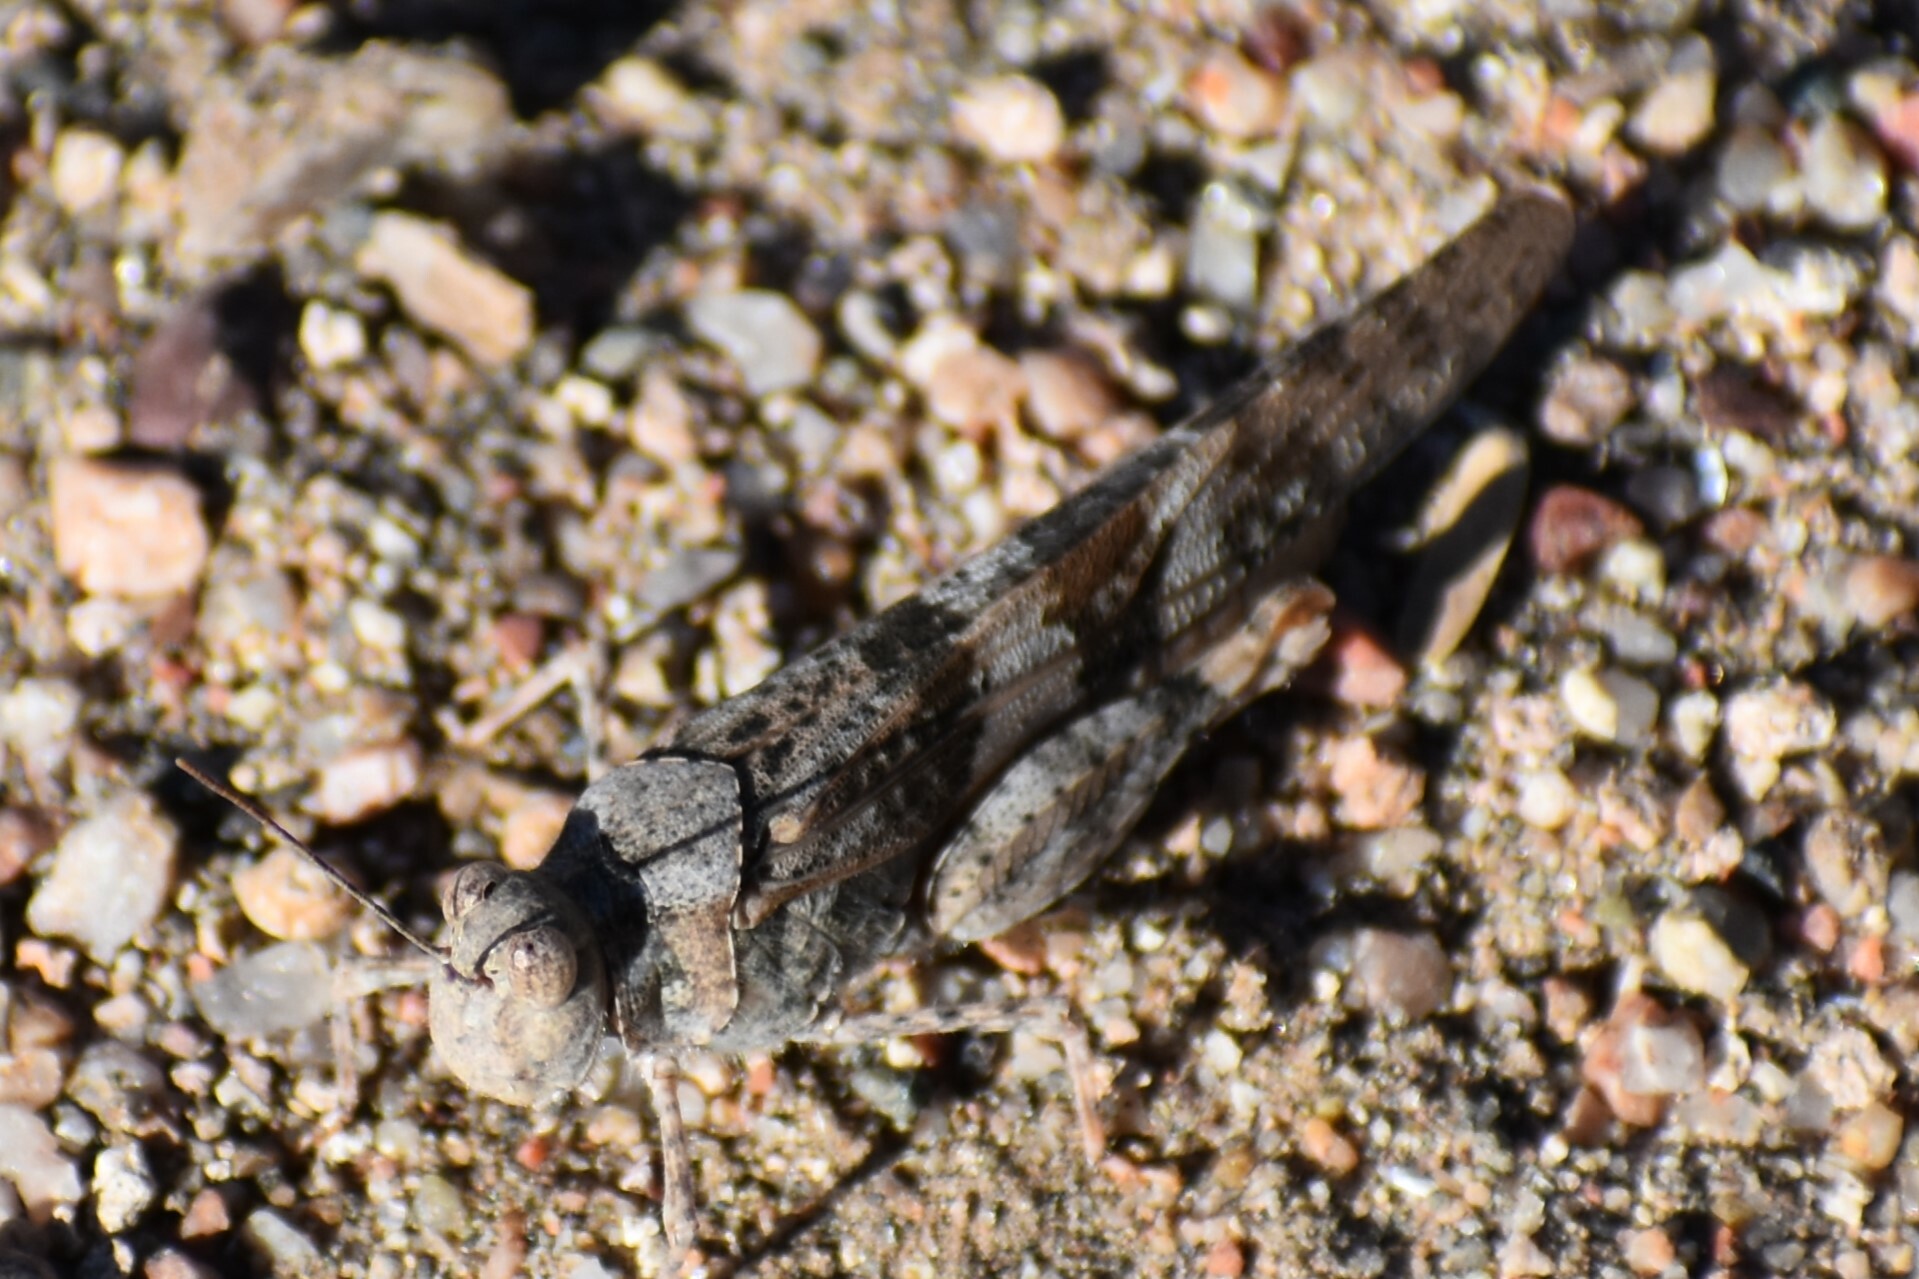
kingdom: Animalia
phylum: Arthropoda
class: Insecta
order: Orthoptera
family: Acrididae
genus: Trimerotropis
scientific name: Trimerotropis pallidipennis
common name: Pallid-winged grasshopper
